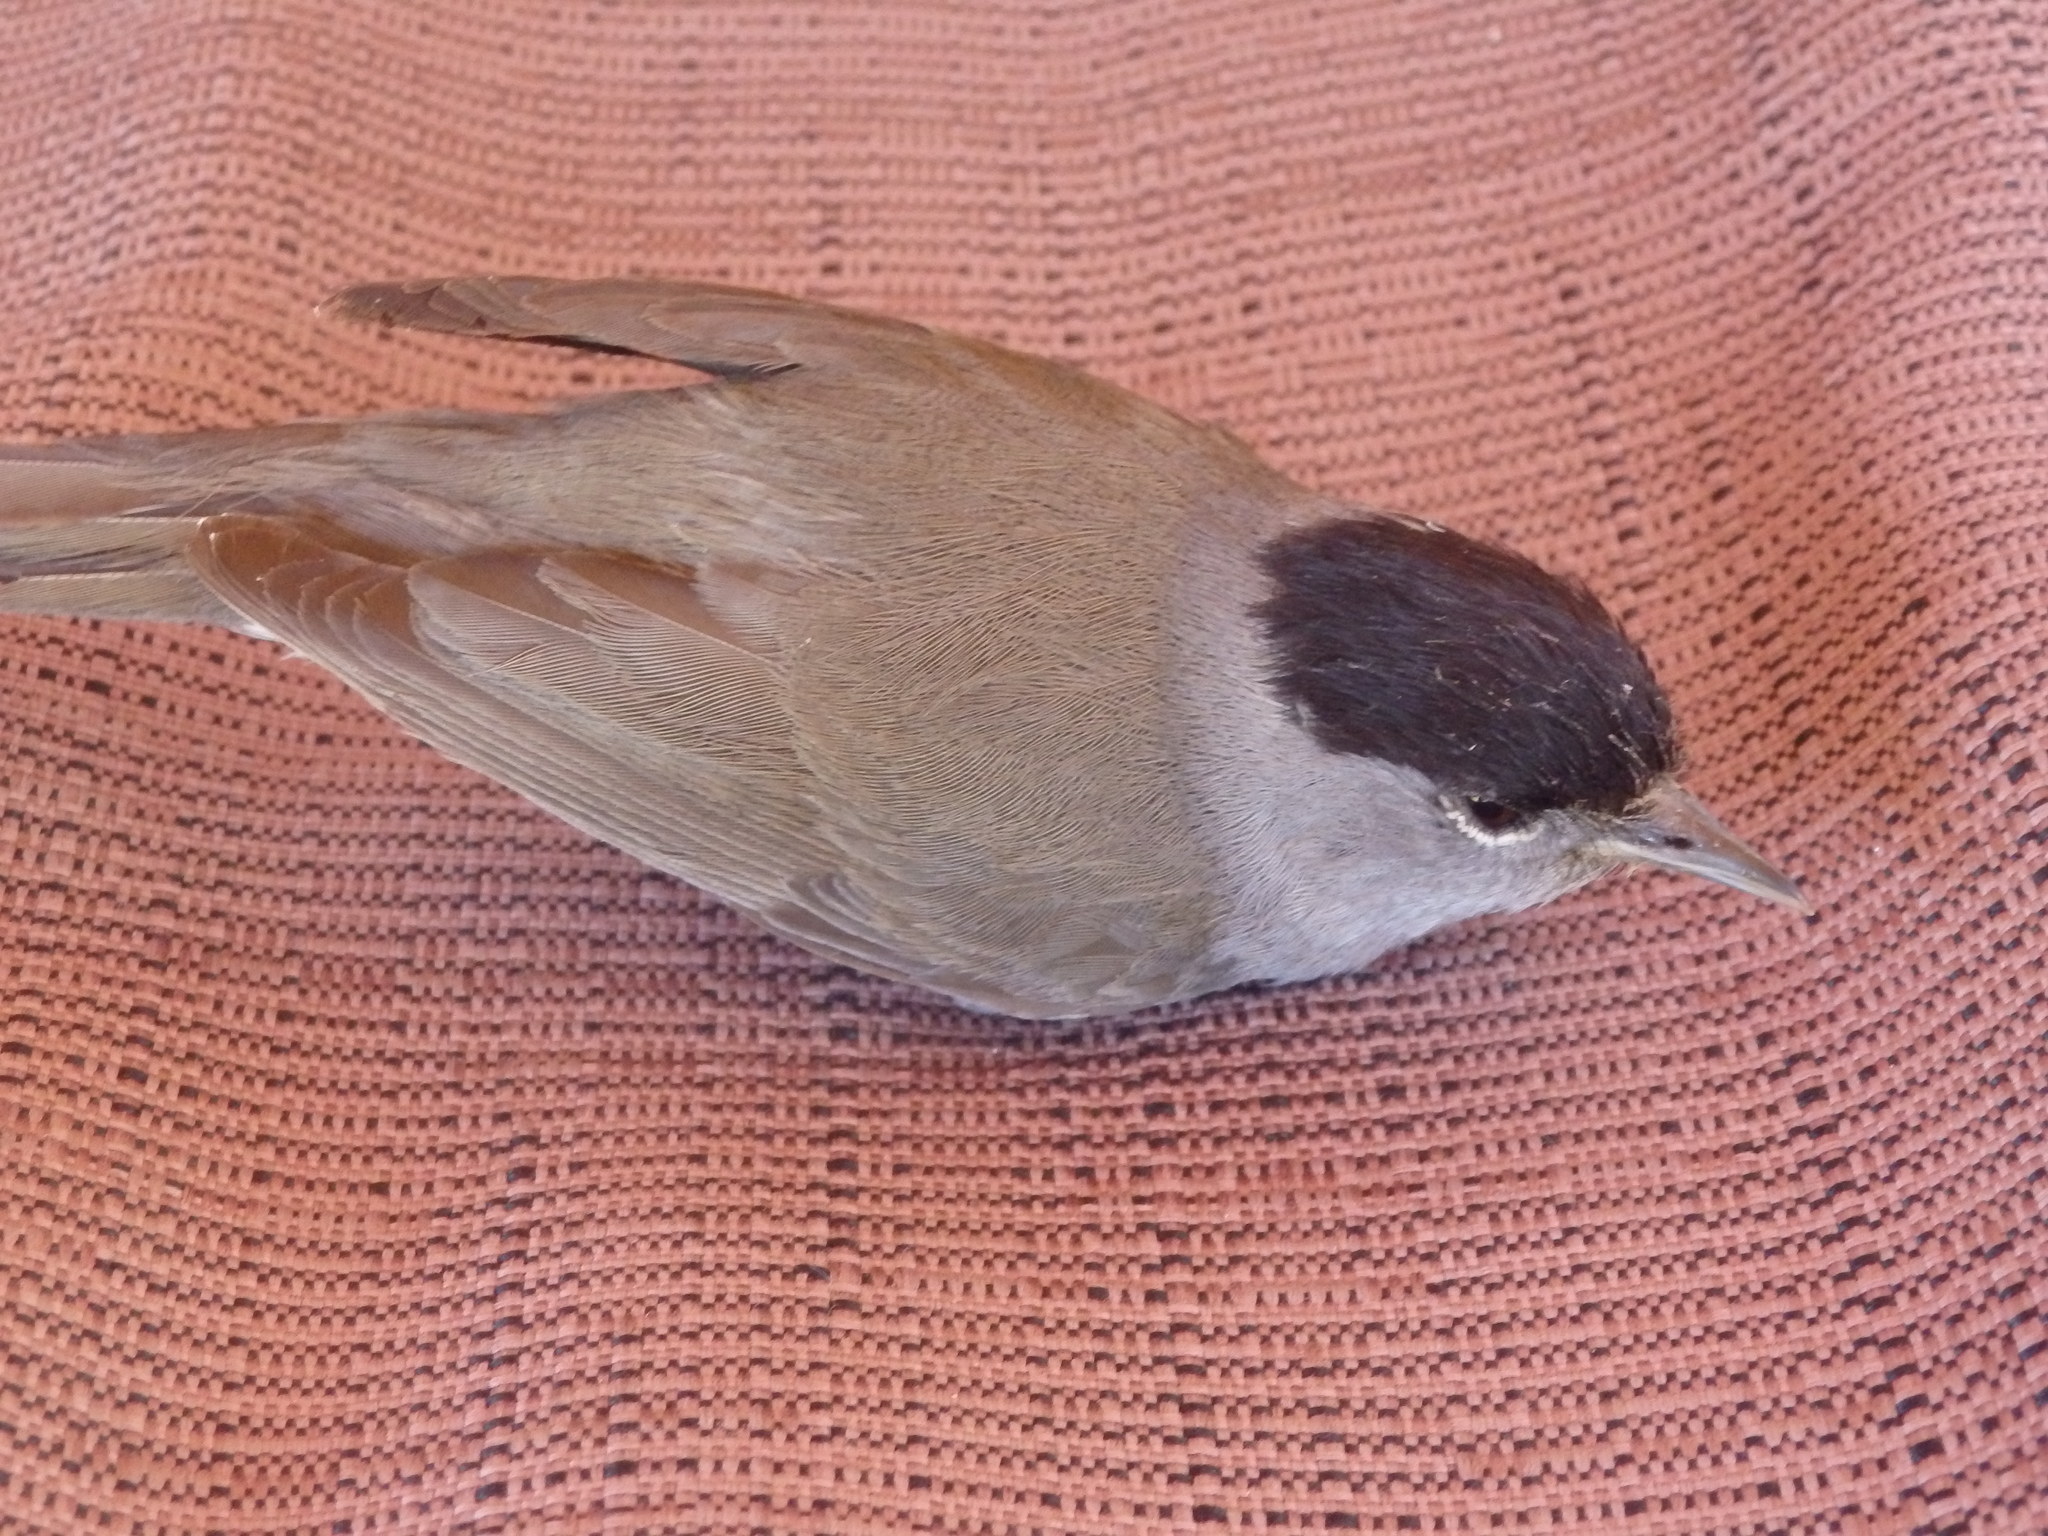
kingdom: Animalia
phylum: Chordata
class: Aves
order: Passeriformes
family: Sylviidae
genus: Sylvia
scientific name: Sylvia atricapilla
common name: Eurasian blackcap
